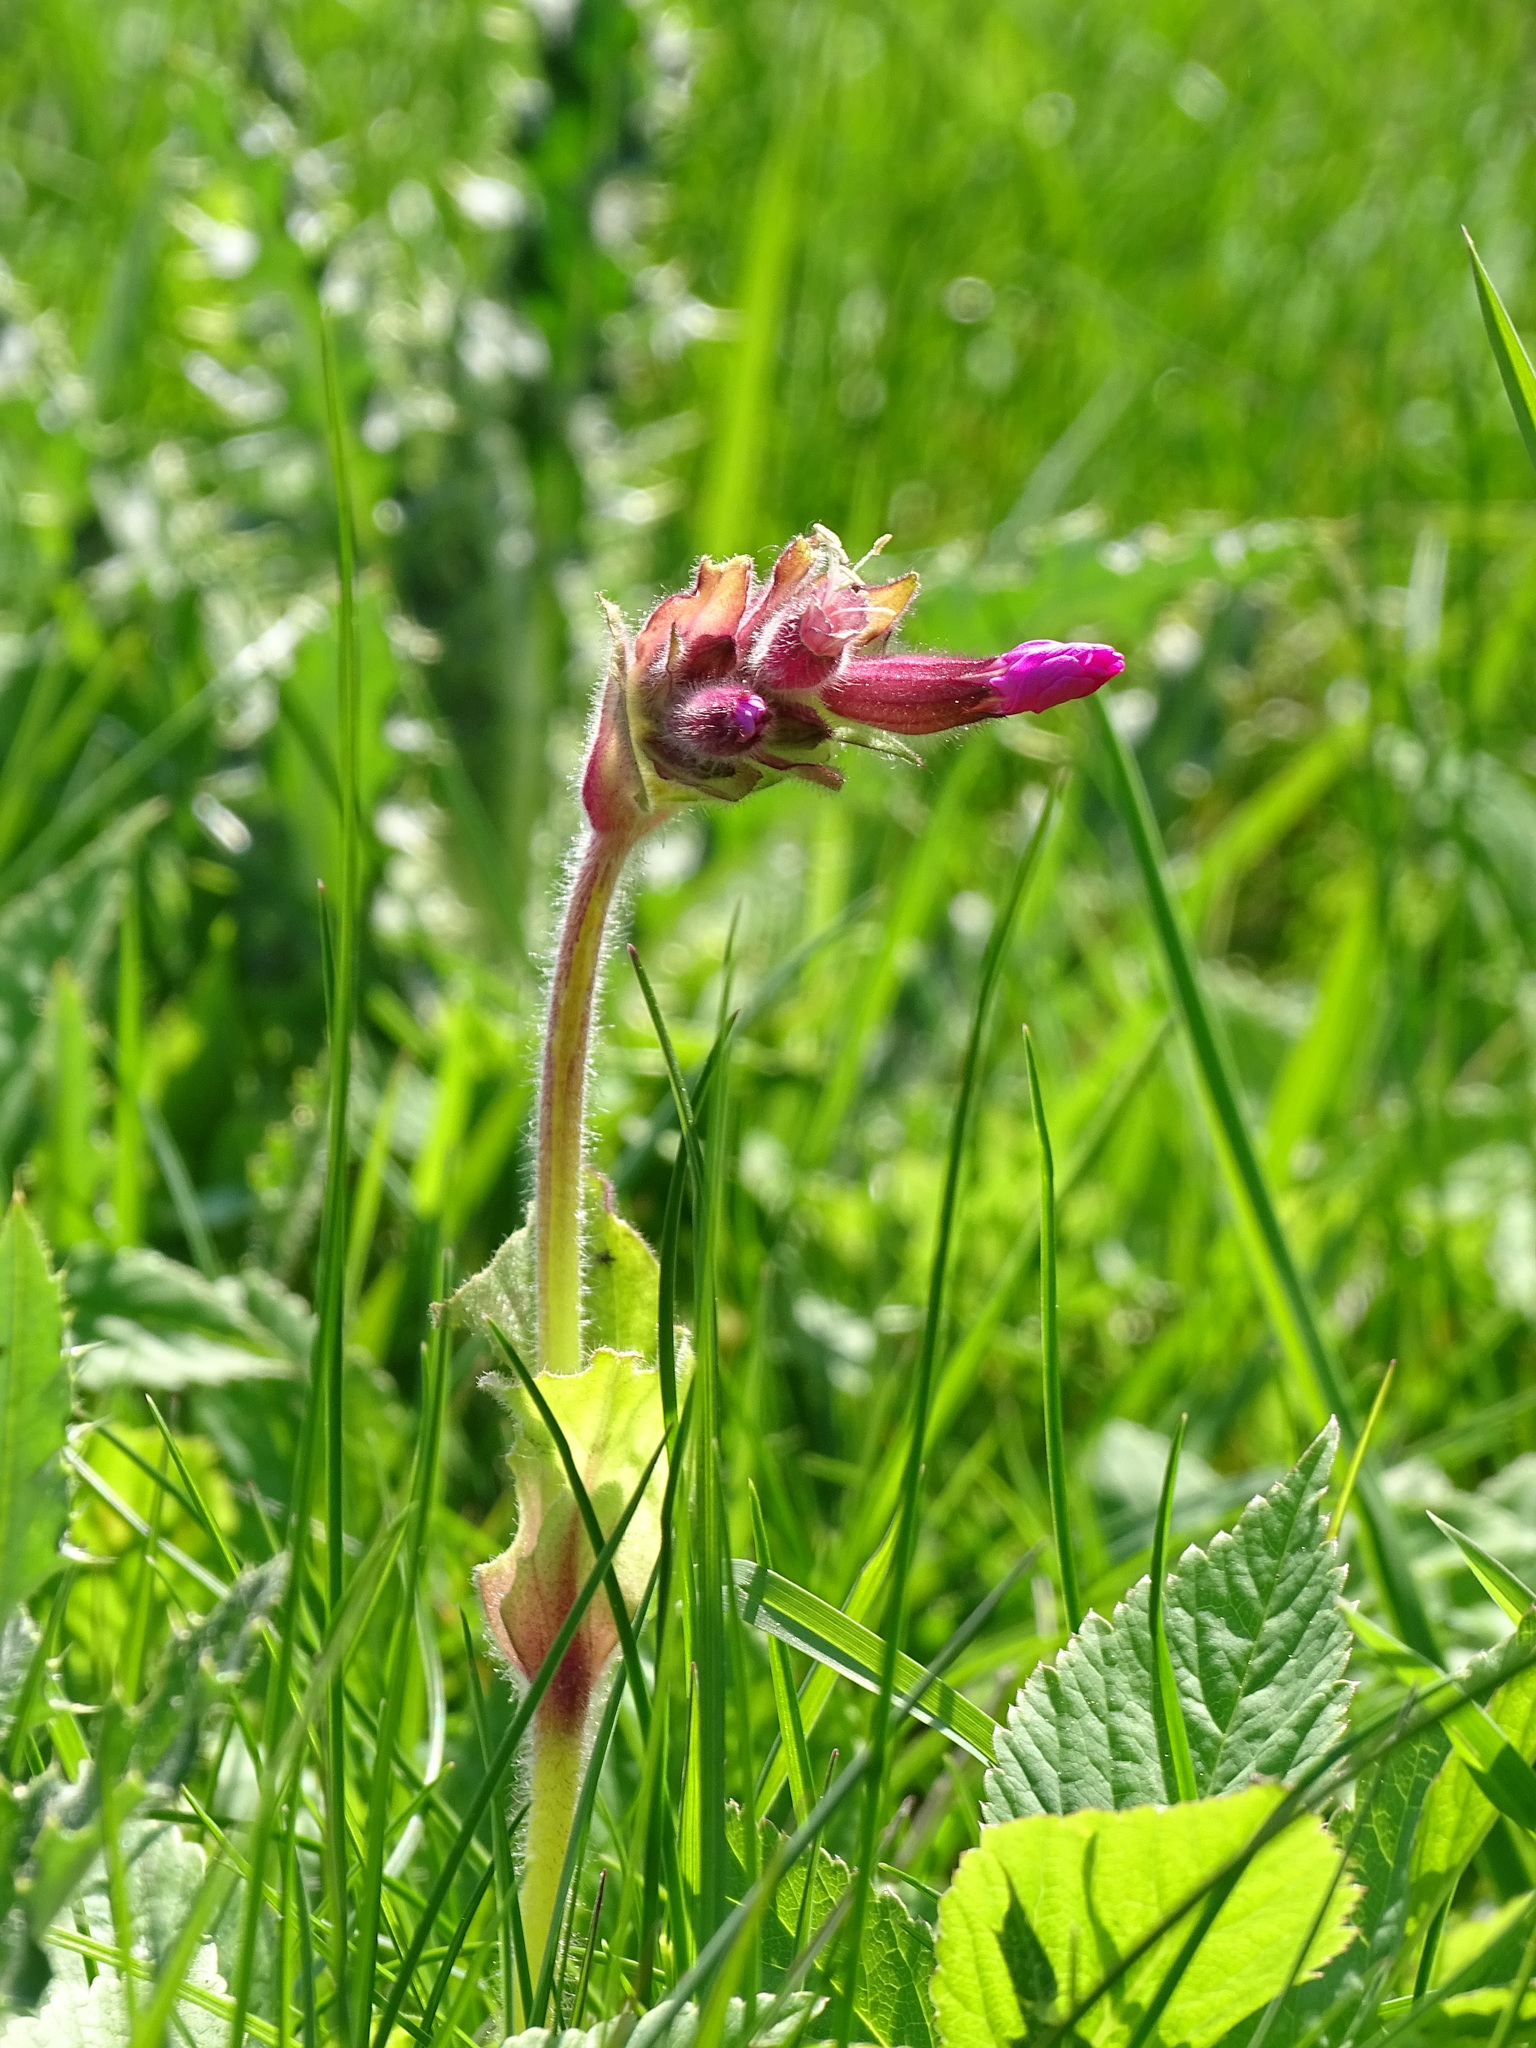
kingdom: Plantae
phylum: Tracheophyta
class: Magnoliopsida
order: Caryophyllales
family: Caryophyllaceae
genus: Silene
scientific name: Silene dioica
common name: Red campion
